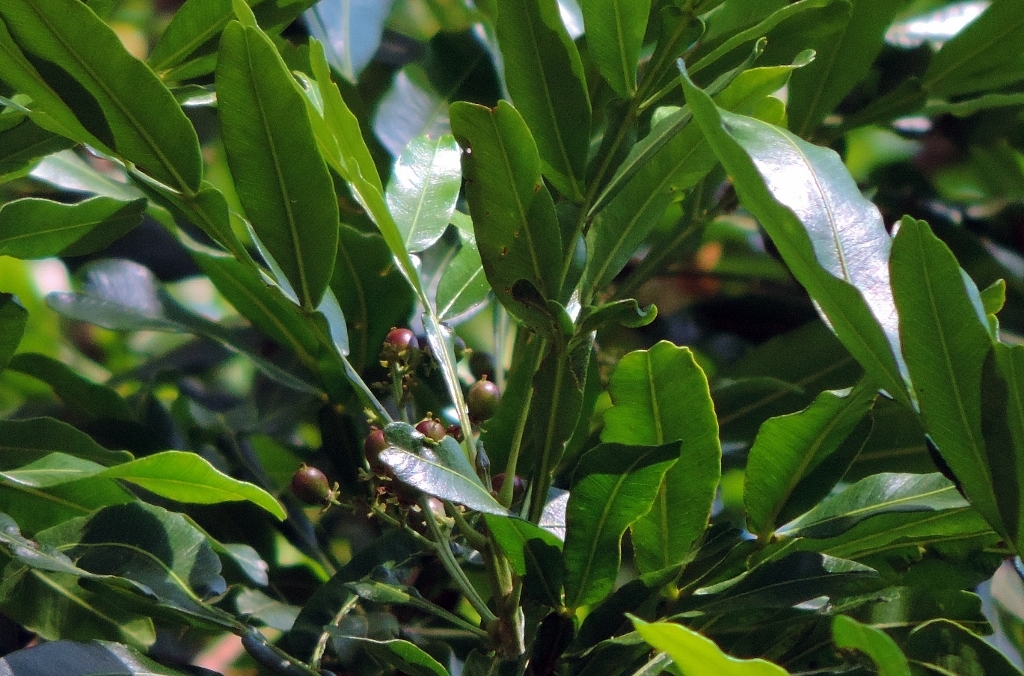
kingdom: Plantae
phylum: Tracheophyta
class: Magnoliopsida
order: Sapindales
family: Sapindaceae
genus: Filicium
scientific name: Filicium decipiens
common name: Ferntree
